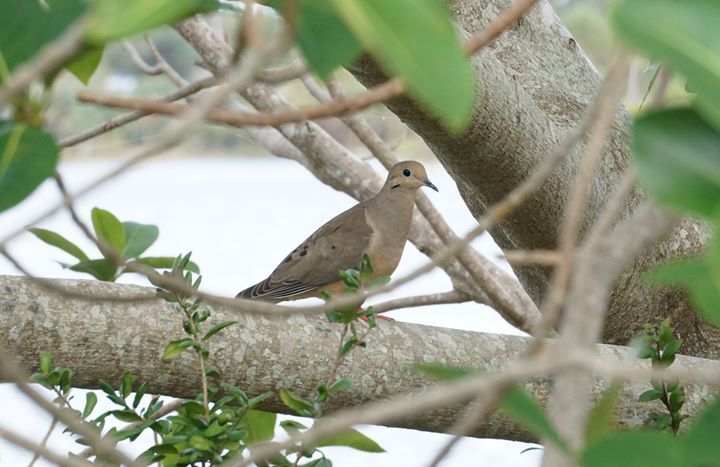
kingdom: Animalia
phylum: Chordata
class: Aves
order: Columbiformes
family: Columbidae
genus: Zenaida
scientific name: Zenaida macroura
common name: Mourning dove
